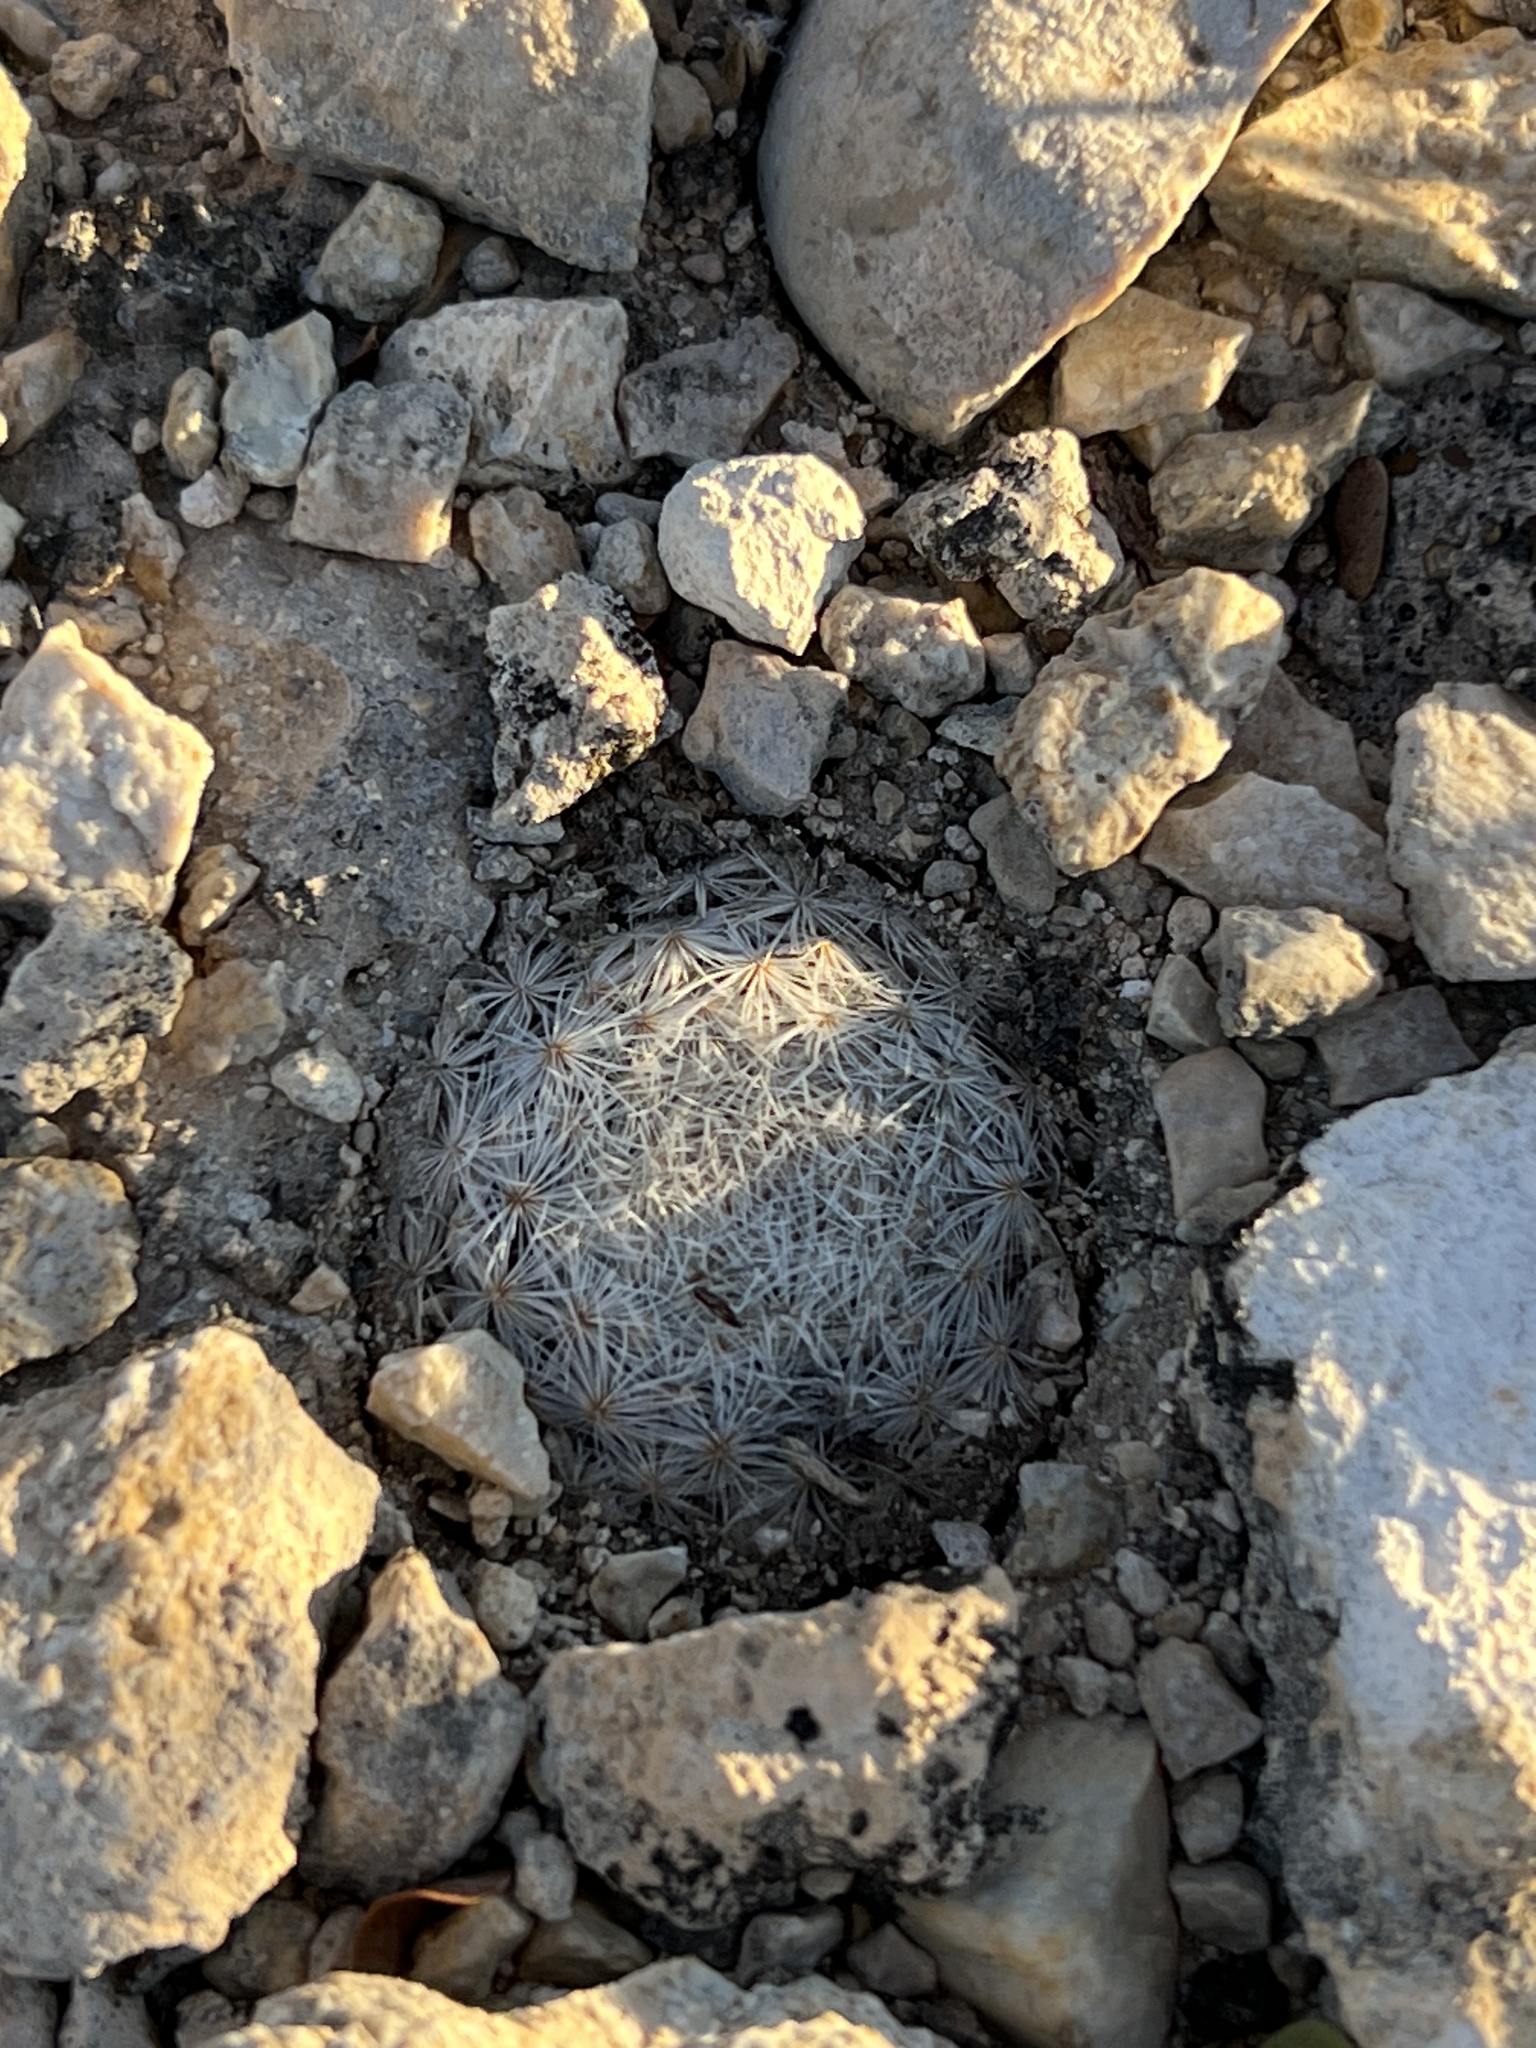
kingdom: Plantae
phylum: Tracheophyta
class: Magnoliopsida
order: Caryophyllales
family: Cactaceae
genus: Mammillaria
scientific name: Mammillaria lasiacantha
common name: Lace-spine nipple cactus
